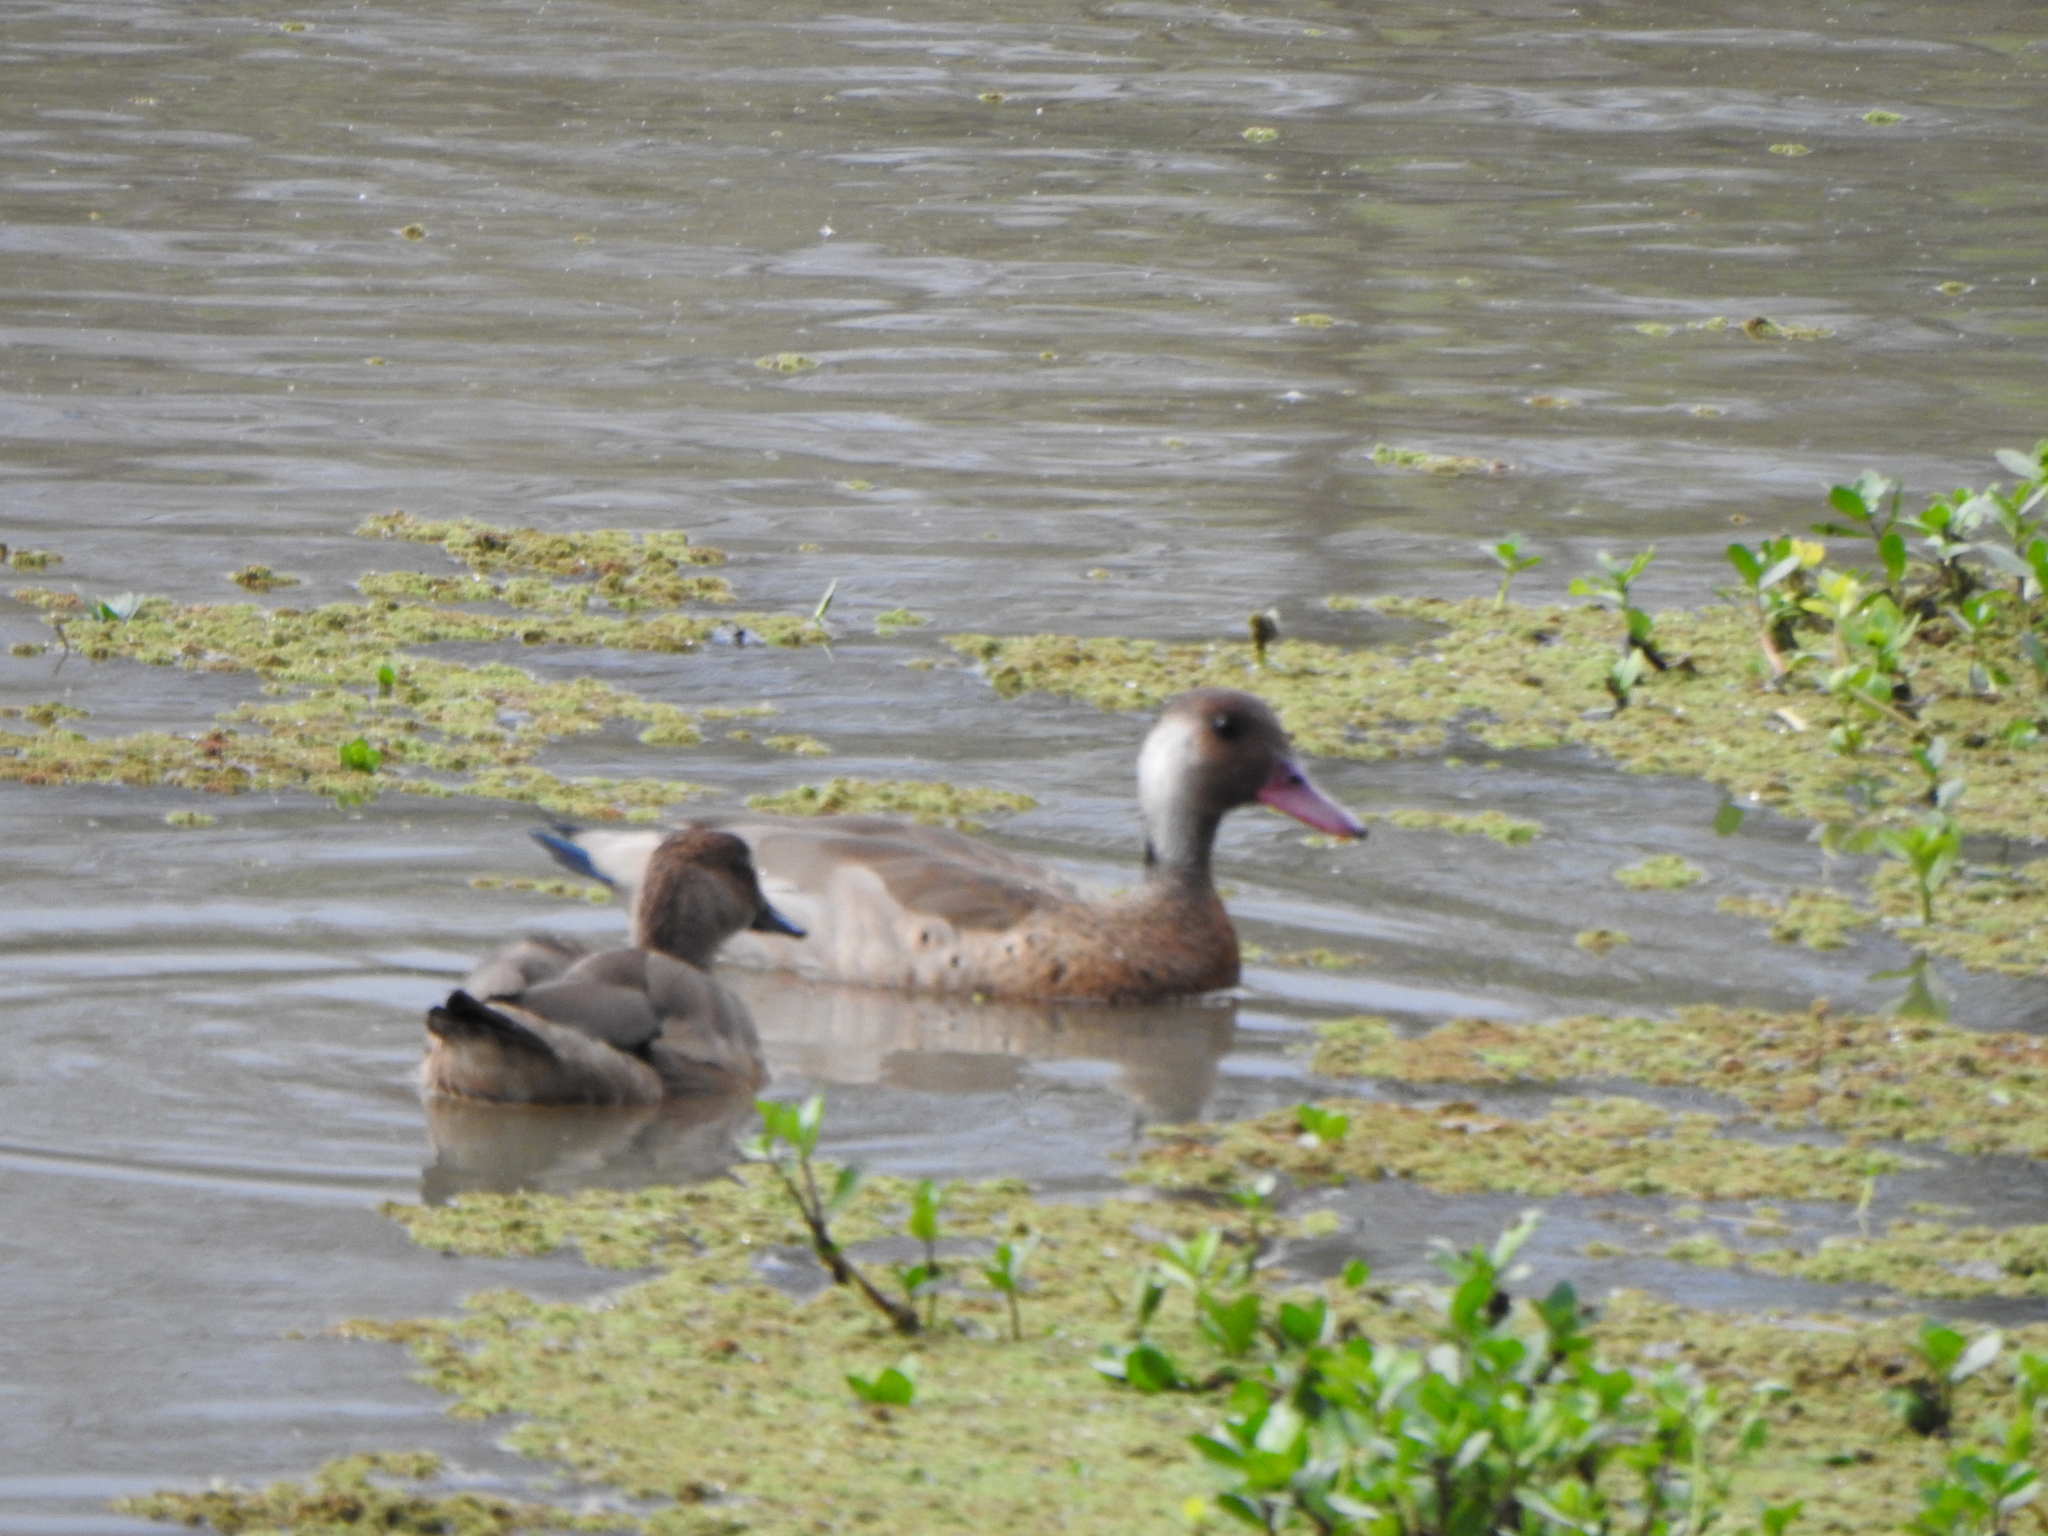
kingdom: Animalia
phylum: Chordata
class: Aves
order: Anseriformes
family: Anatidae
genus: Amazonetta
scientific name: Amazonetta brasiliensis
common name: Brazilian teal
